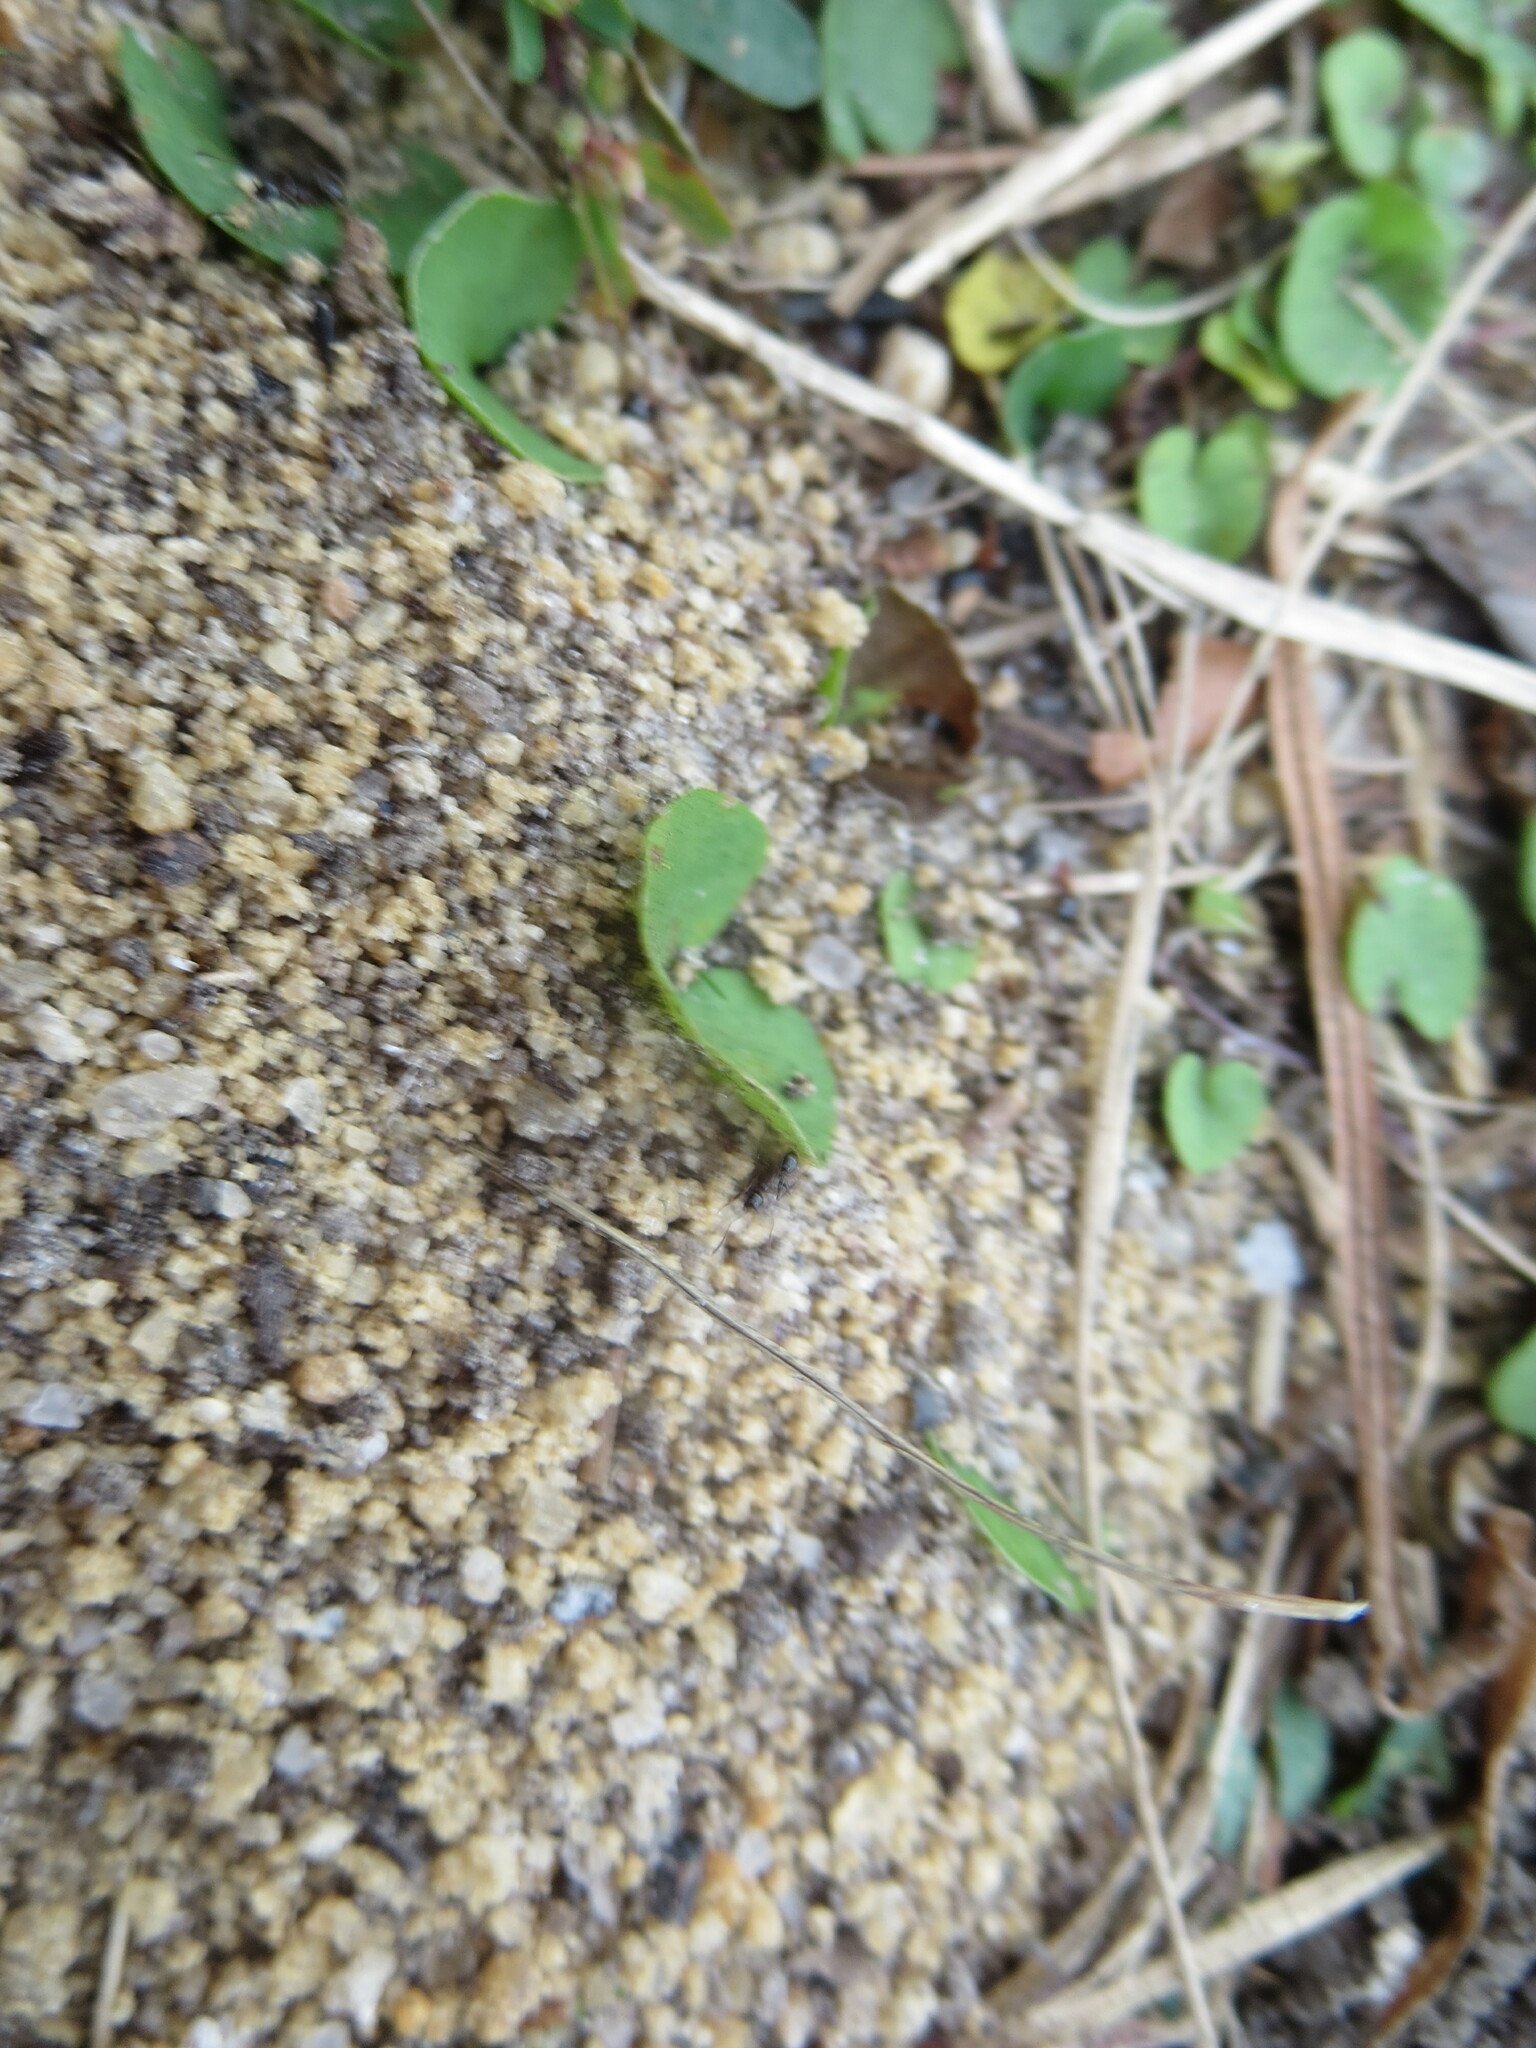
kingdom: Animalia
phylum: Arthropoda
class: Insecta
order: Hymenoptera
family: Formicidae
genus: Pheidole
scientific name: Pheidole obscurithorax
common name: Obscure big-headed ant
